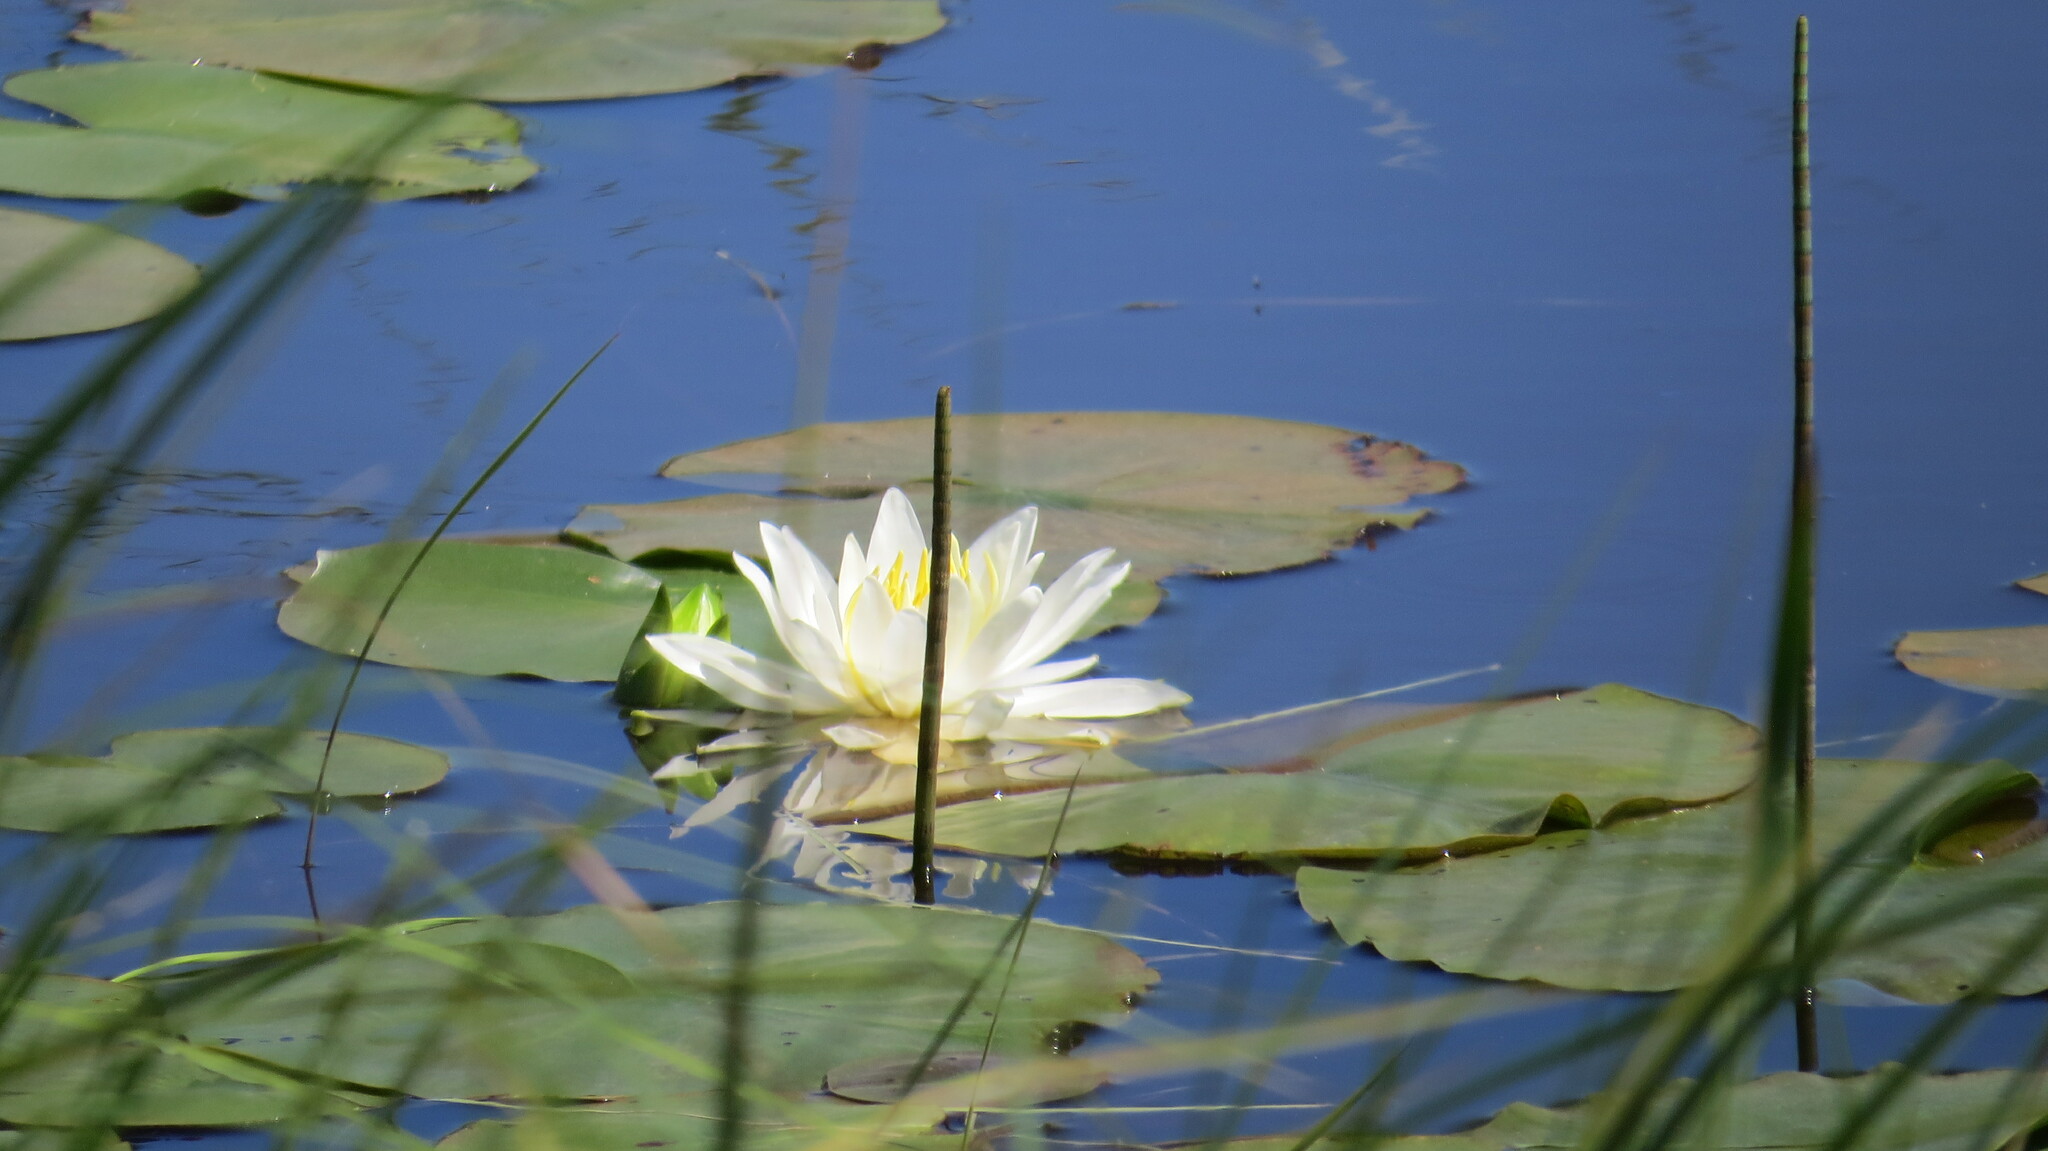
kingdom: Plantae
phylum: Tracheophyta
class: Magnoliopsida
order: Nymphaeales
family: Nymphaeaceae
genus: Nymphaea
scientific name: Nymphaea odorata
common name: Fragrant water-lily
